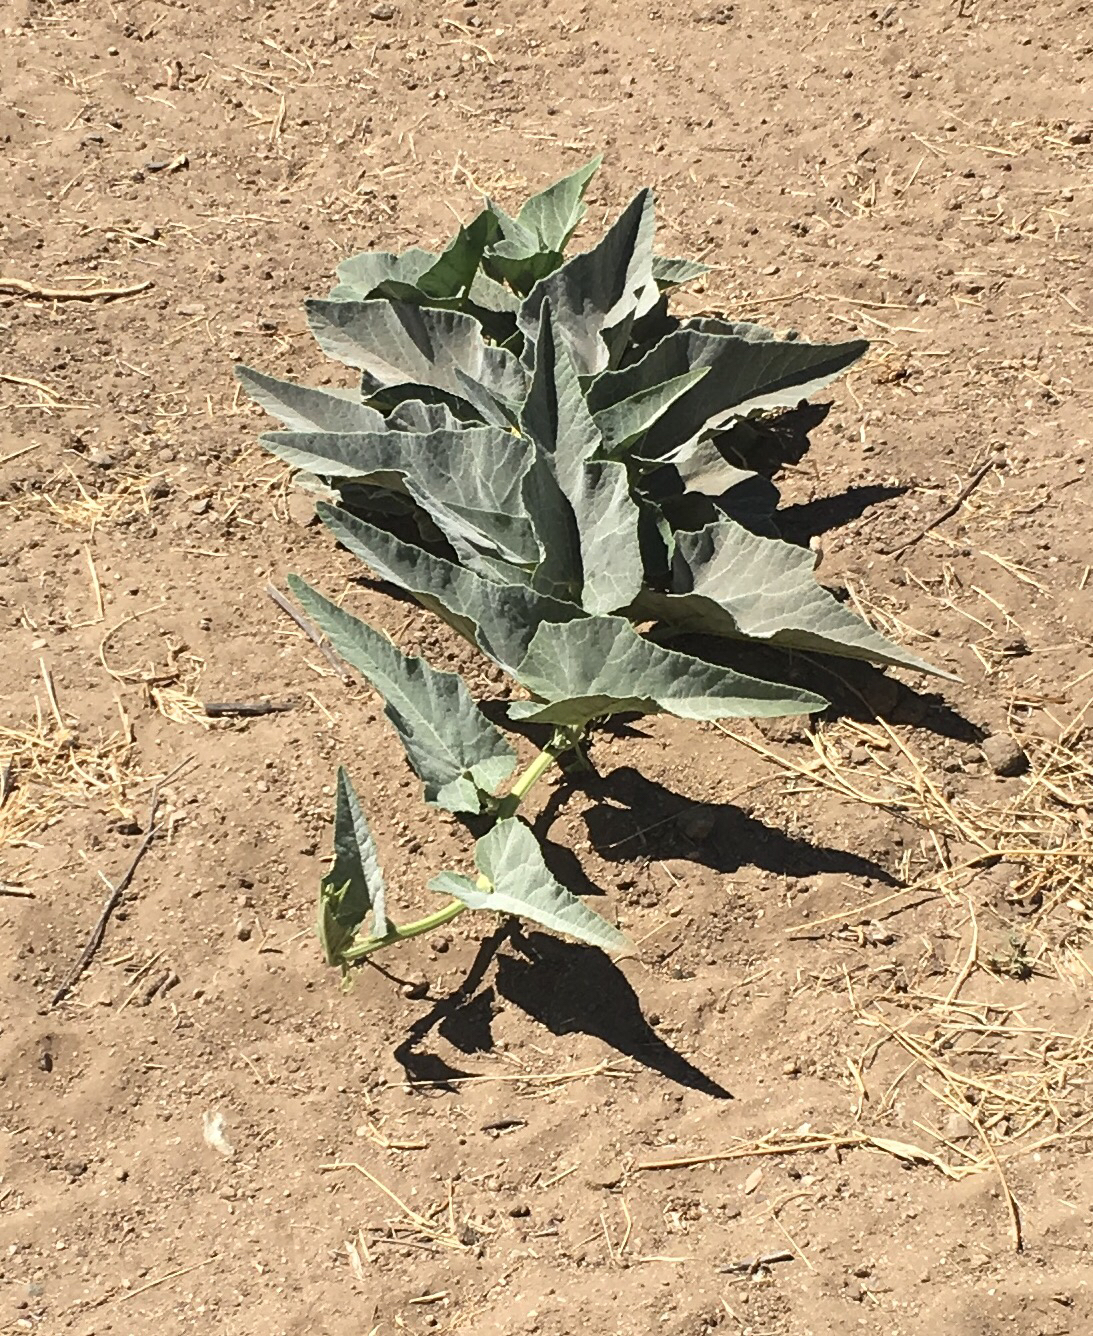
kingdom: Plantae
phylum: Tracheophyta
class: Magnoliopsida
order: Cucurbitales
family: Cucurbitaceae
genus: Cucurbita
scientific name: Cucurbita foetidissima
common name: Buffalo gourd
